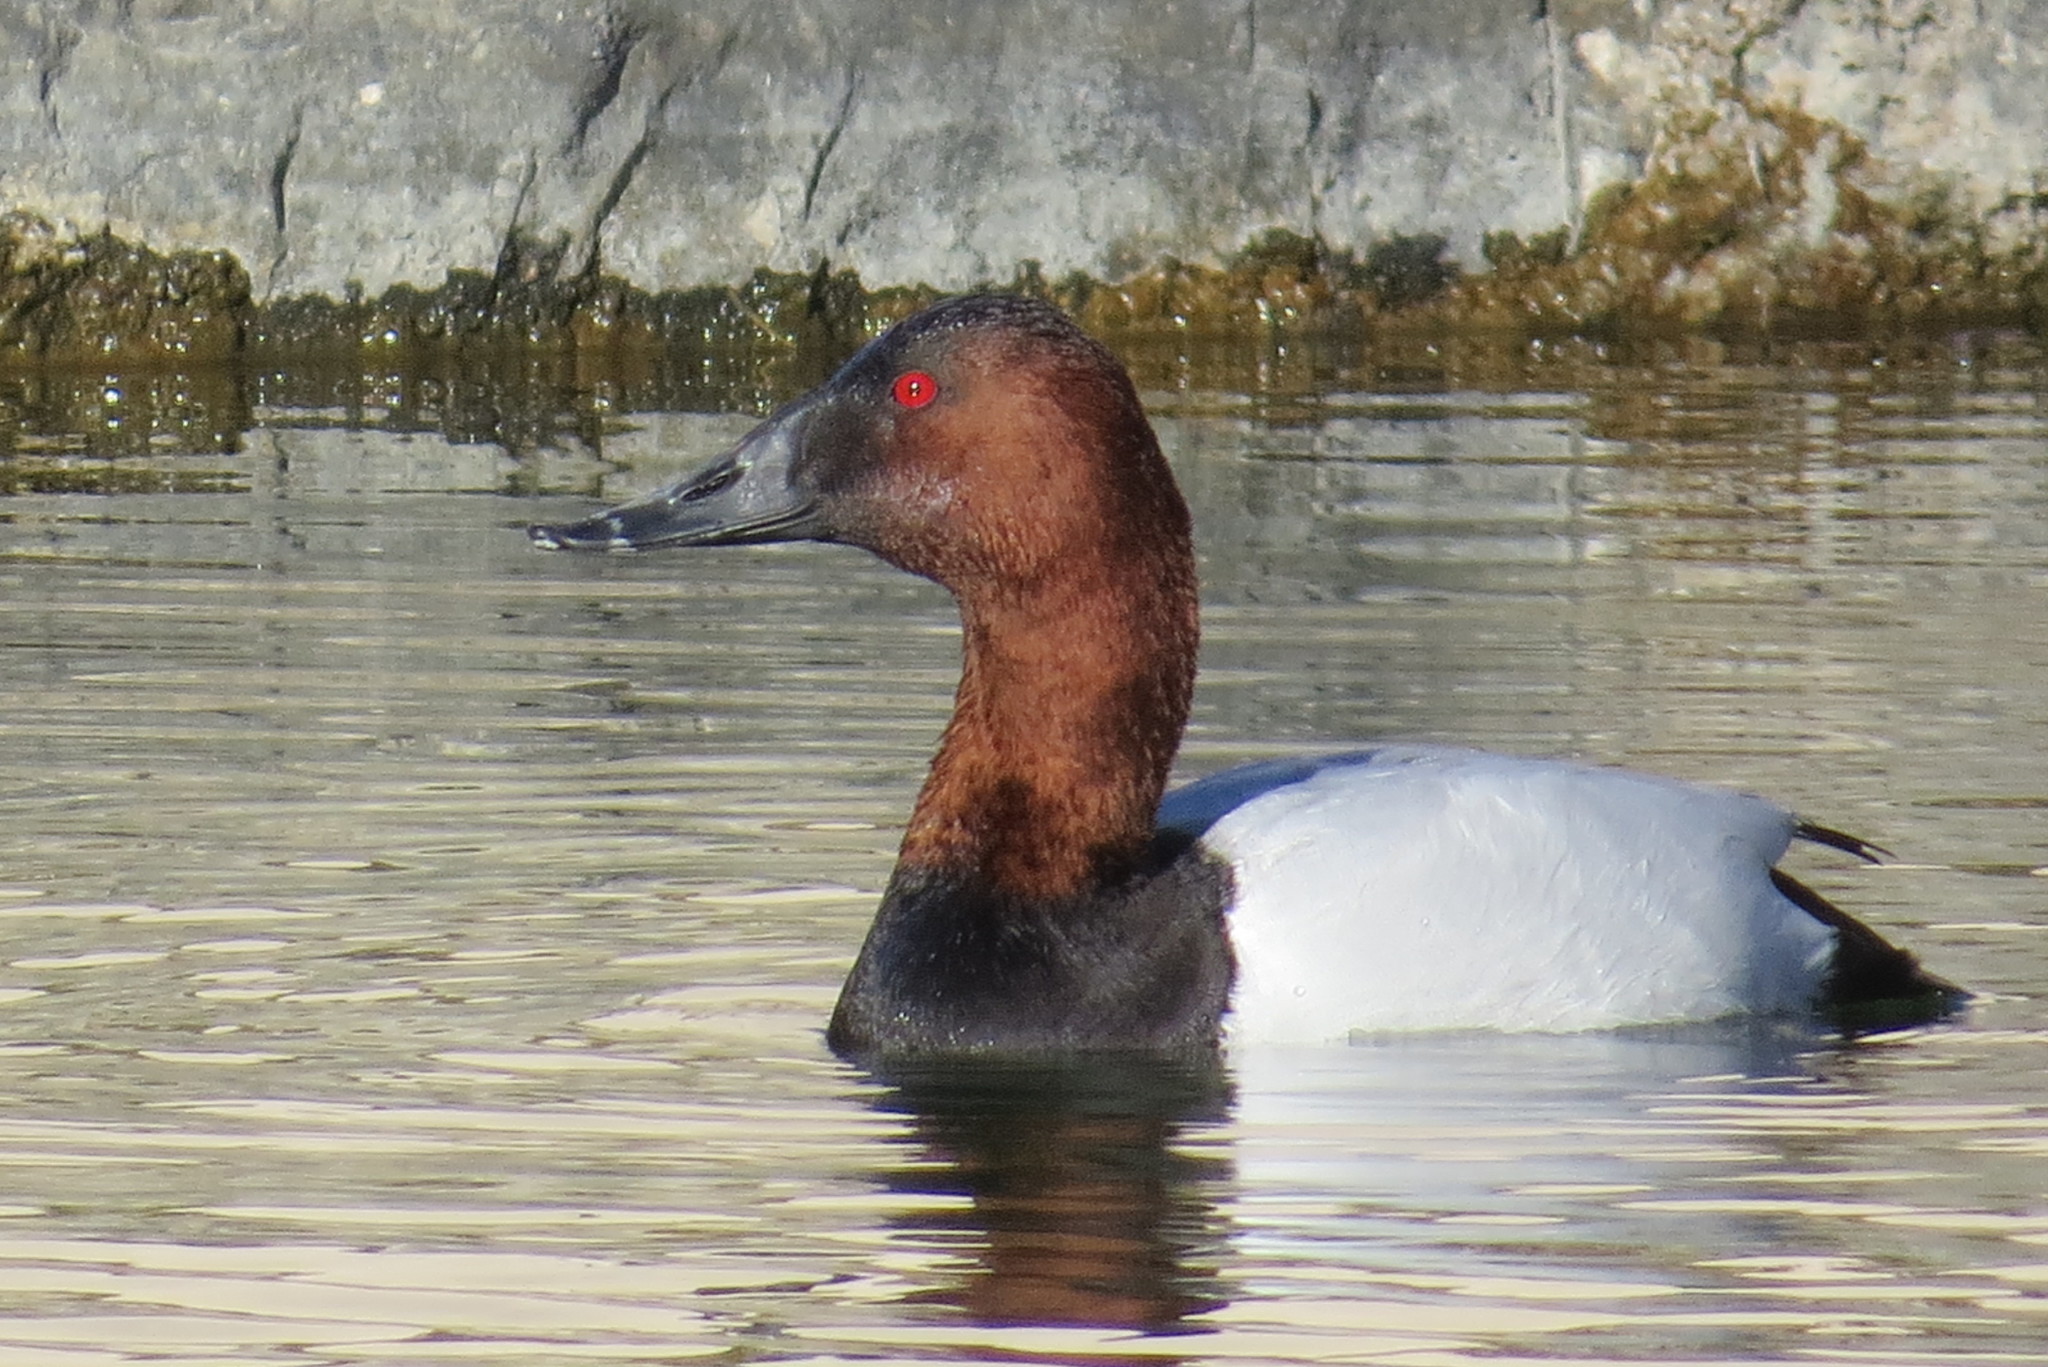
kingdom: Animalia
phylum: Chordata
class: Aves
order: Anseriformes
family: Anatidae
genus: Aythya
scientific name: Aythya valisineria
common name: Canvasback
